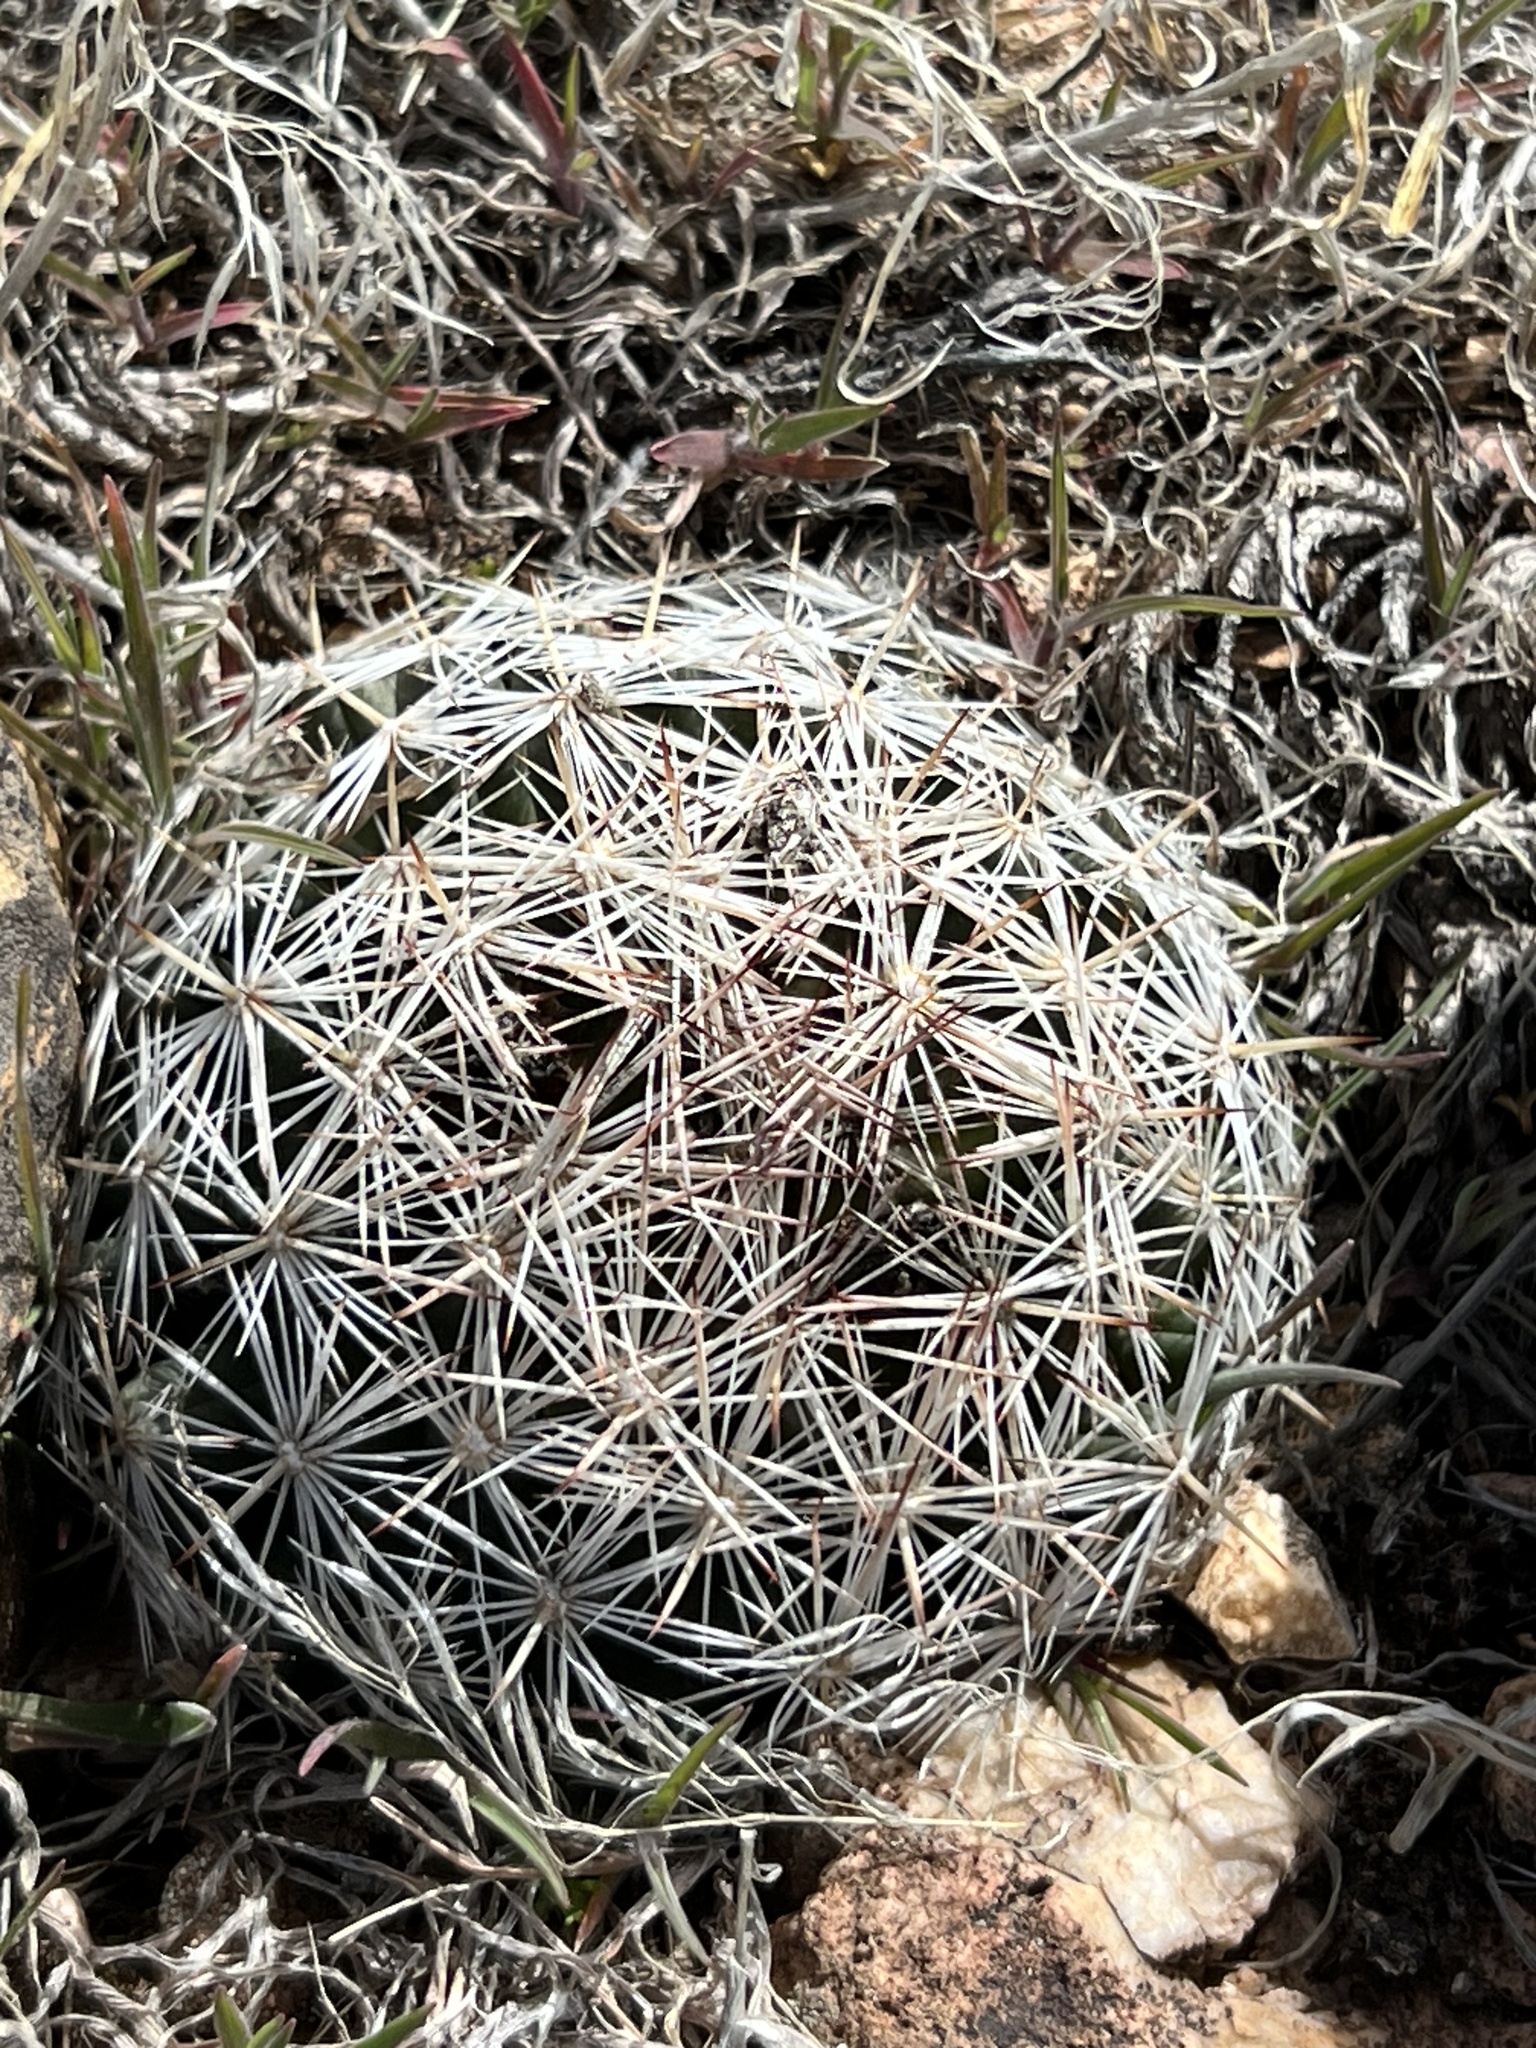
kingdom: Plantae
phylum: Tracheophyta
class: Magnoliopsida
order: Caryophyllales
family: Cactaceae
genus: Pelecyphora
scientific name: Pelecyphora vivipara
